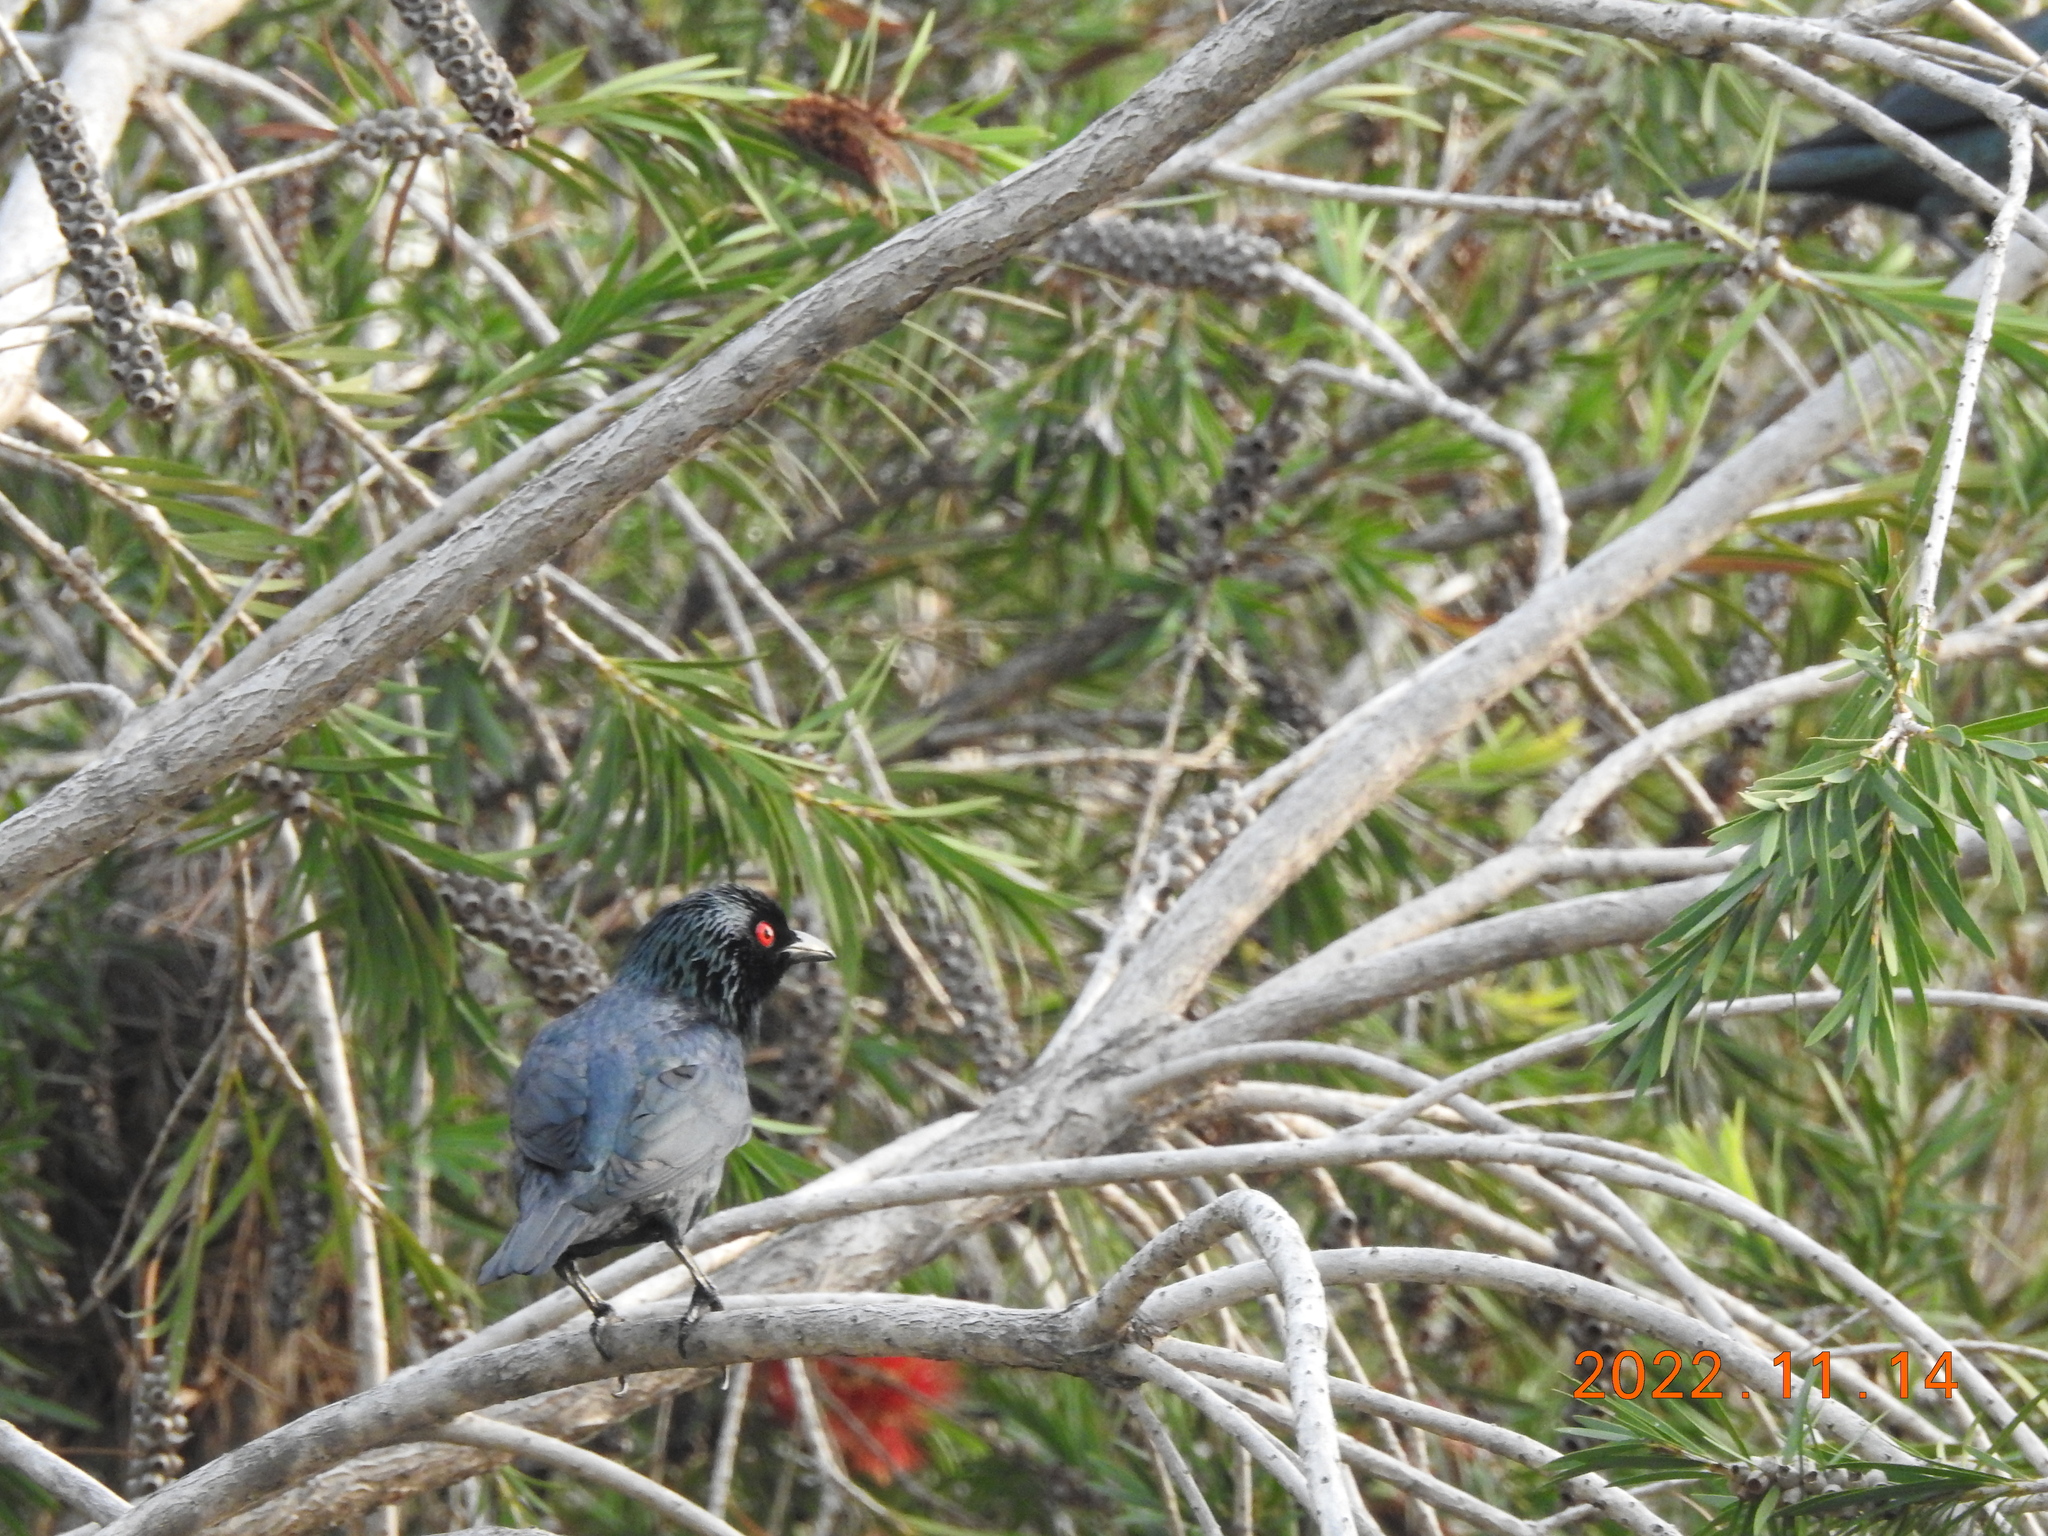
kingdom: Animalia
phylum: Chordata
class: Aves
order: Passeriformes
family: Sturnidae
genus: Aplonis
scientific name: Aplonis panayensis
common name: Asian glossy starling
